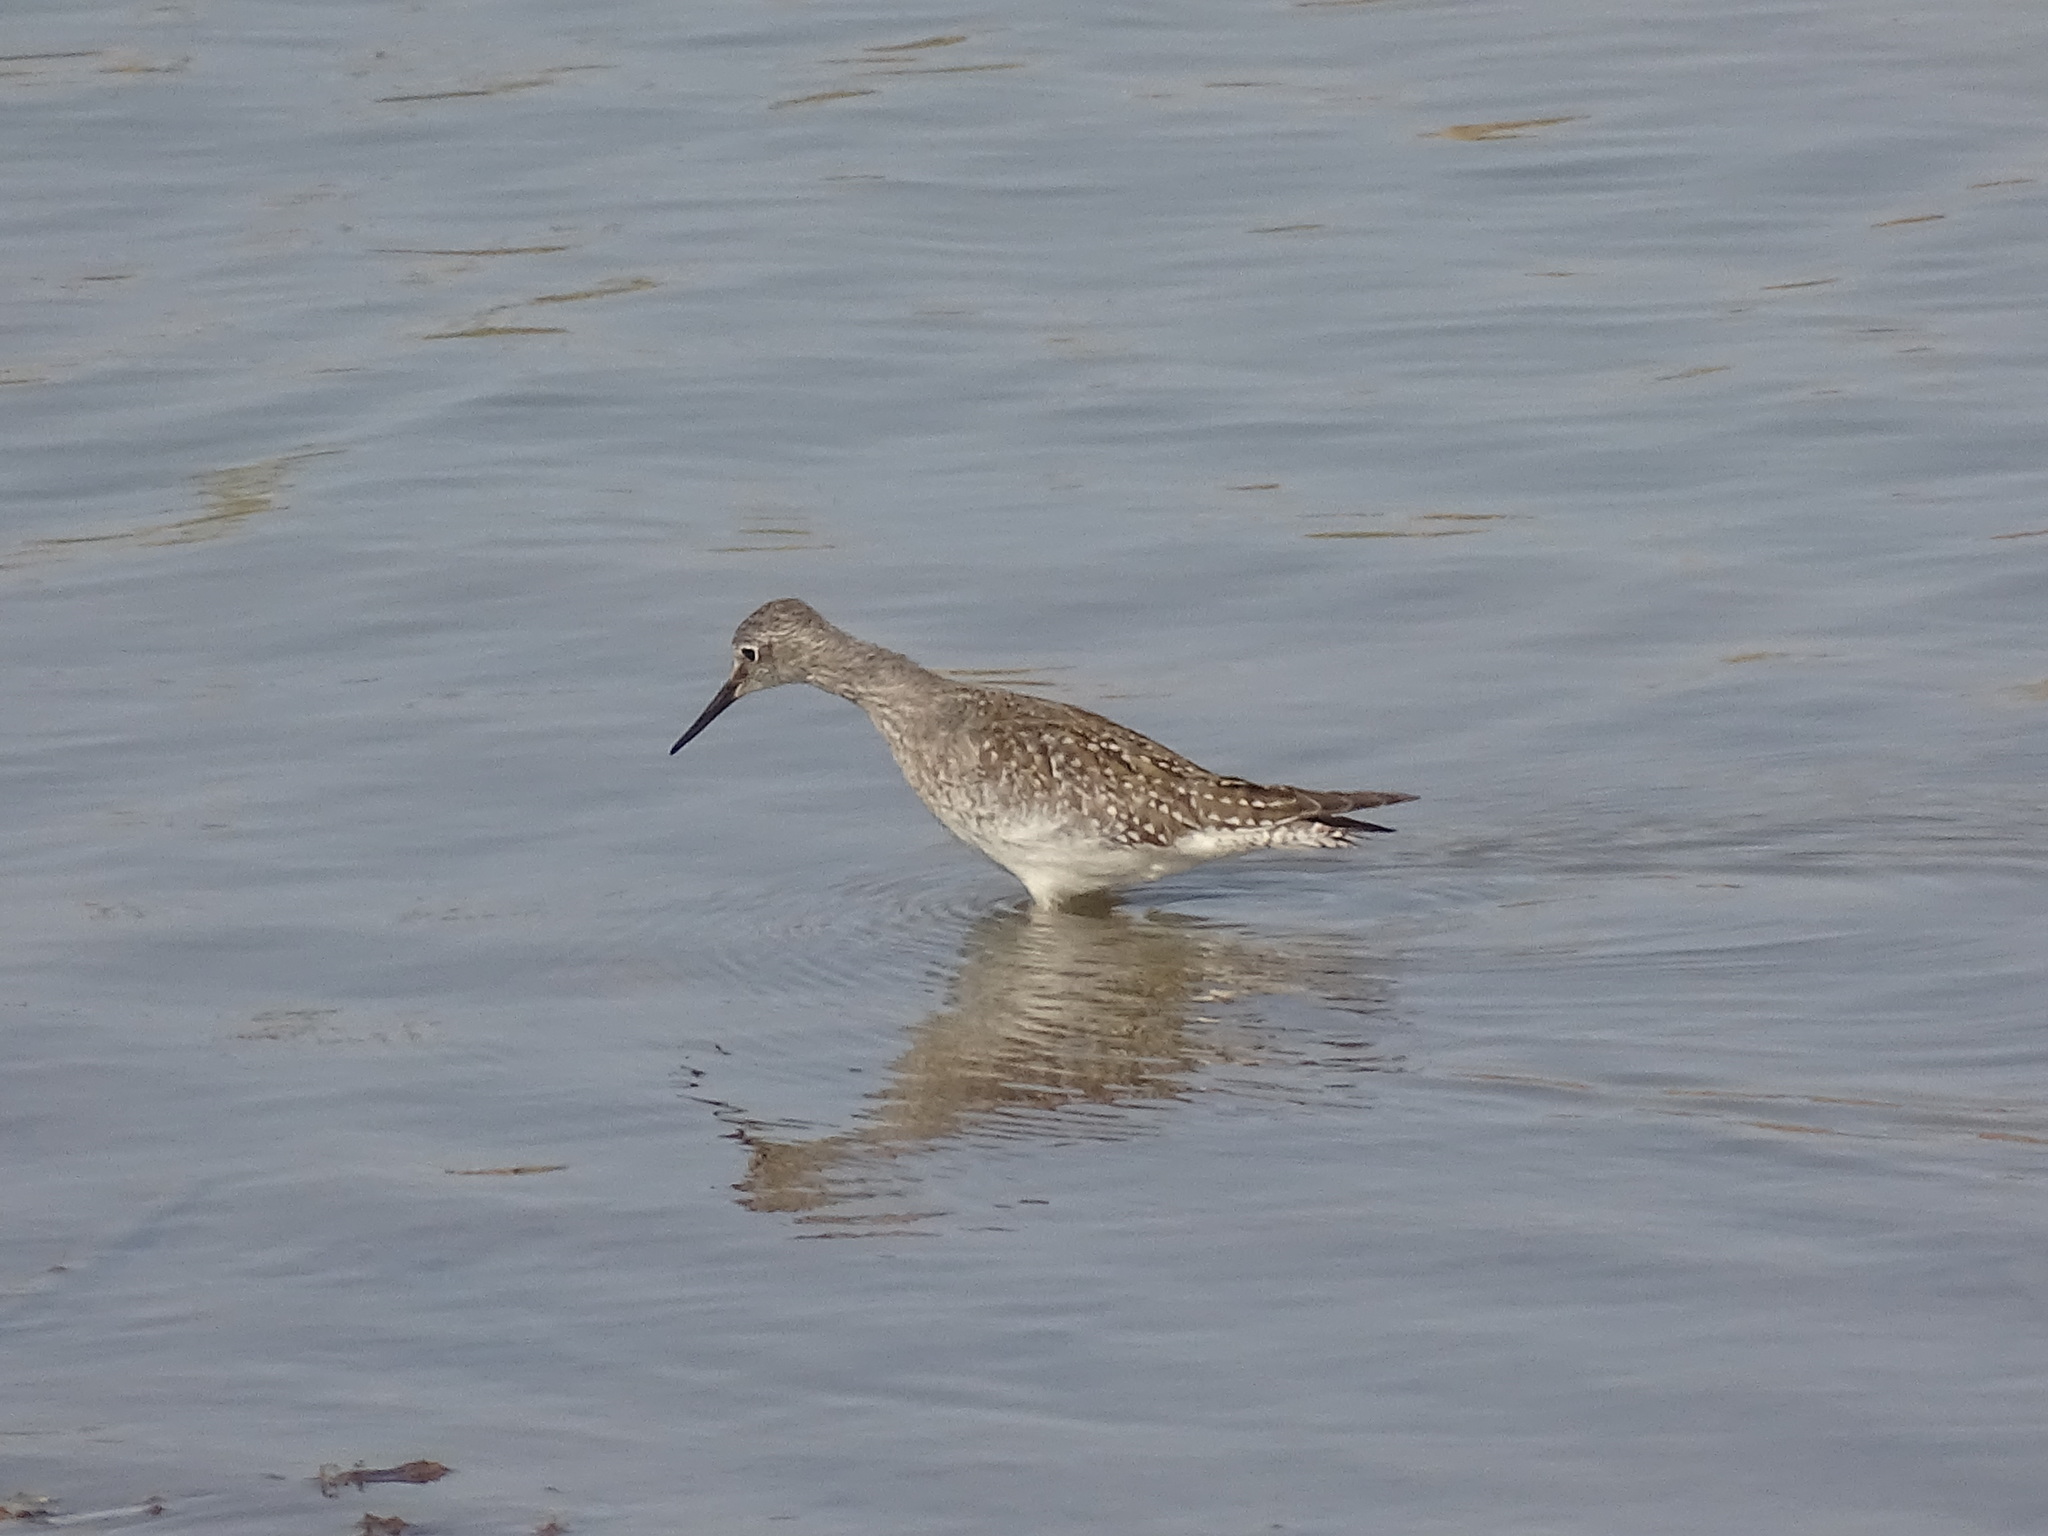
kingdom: Animalia
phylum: Chordata
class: Aves
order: Charadriiformes
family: Scolopacidae
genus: Tringa
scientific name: Tringa flavipes
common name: Lesser yellowlegs
